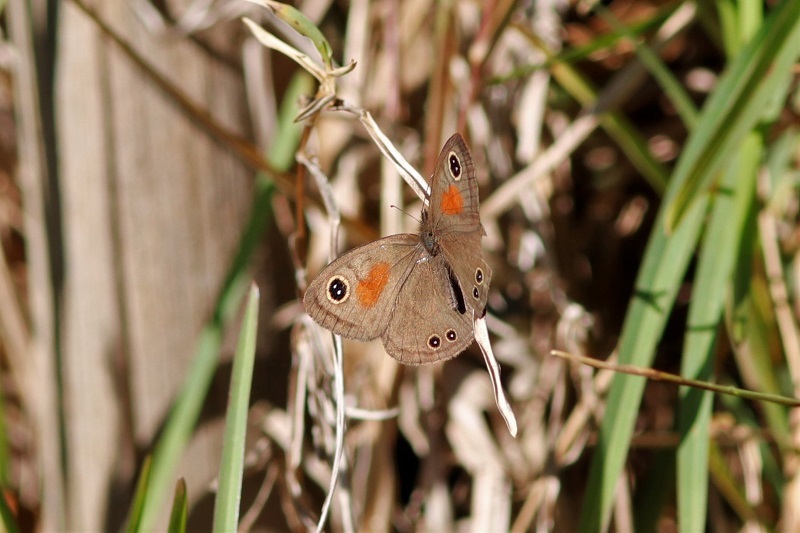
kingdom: Animalia
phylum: Arthropoda
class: Insecta
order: Lepidoptera
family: Nymphalidae
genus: Cassionympha
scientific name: Cassionympha cassius
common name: Rainforest brown
